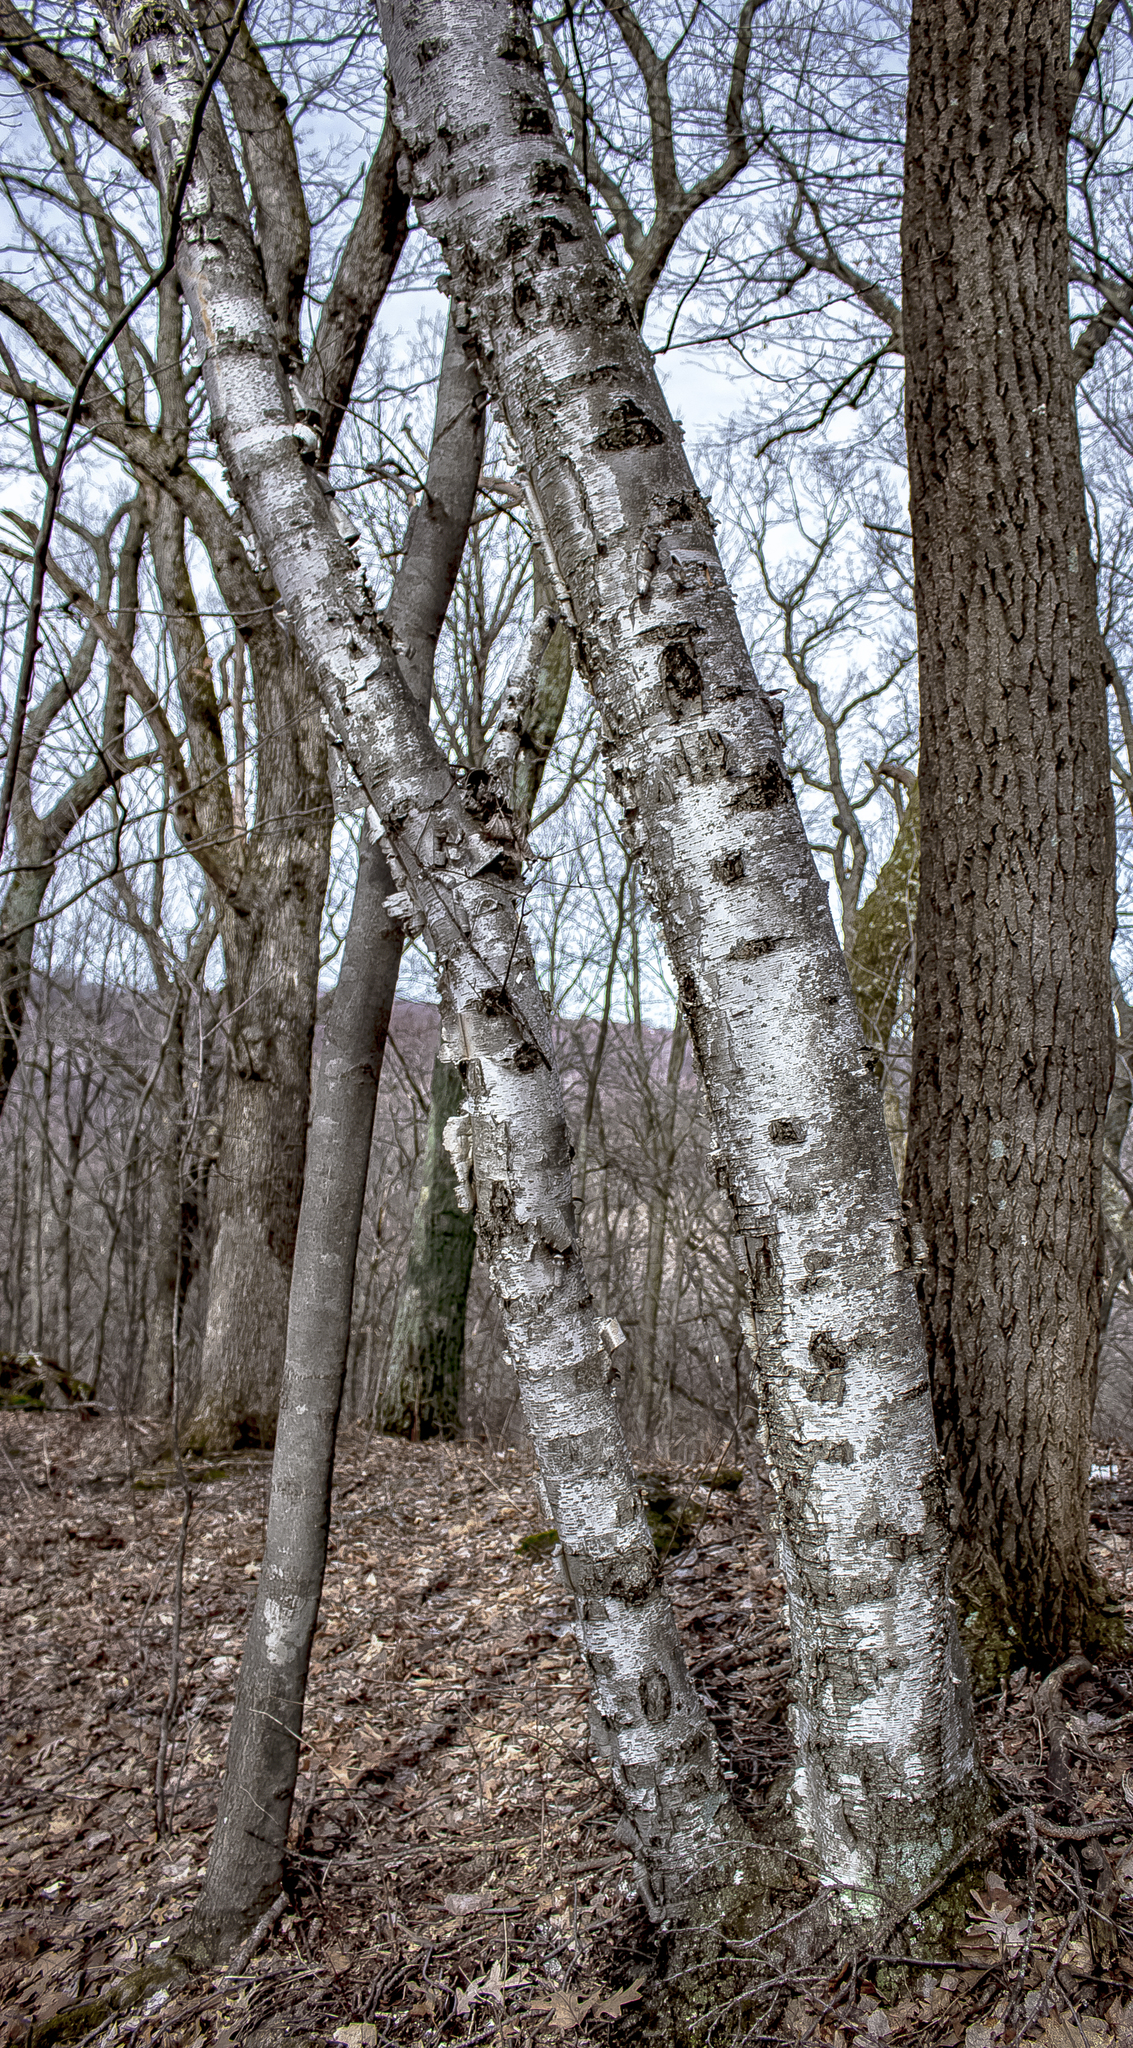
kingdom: Plantae
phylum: Tracheophyta
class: Magnoliopsida
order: Fagales
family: Betulaceae
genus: Betula
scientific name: Betula papyrifera
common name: Paper birch
